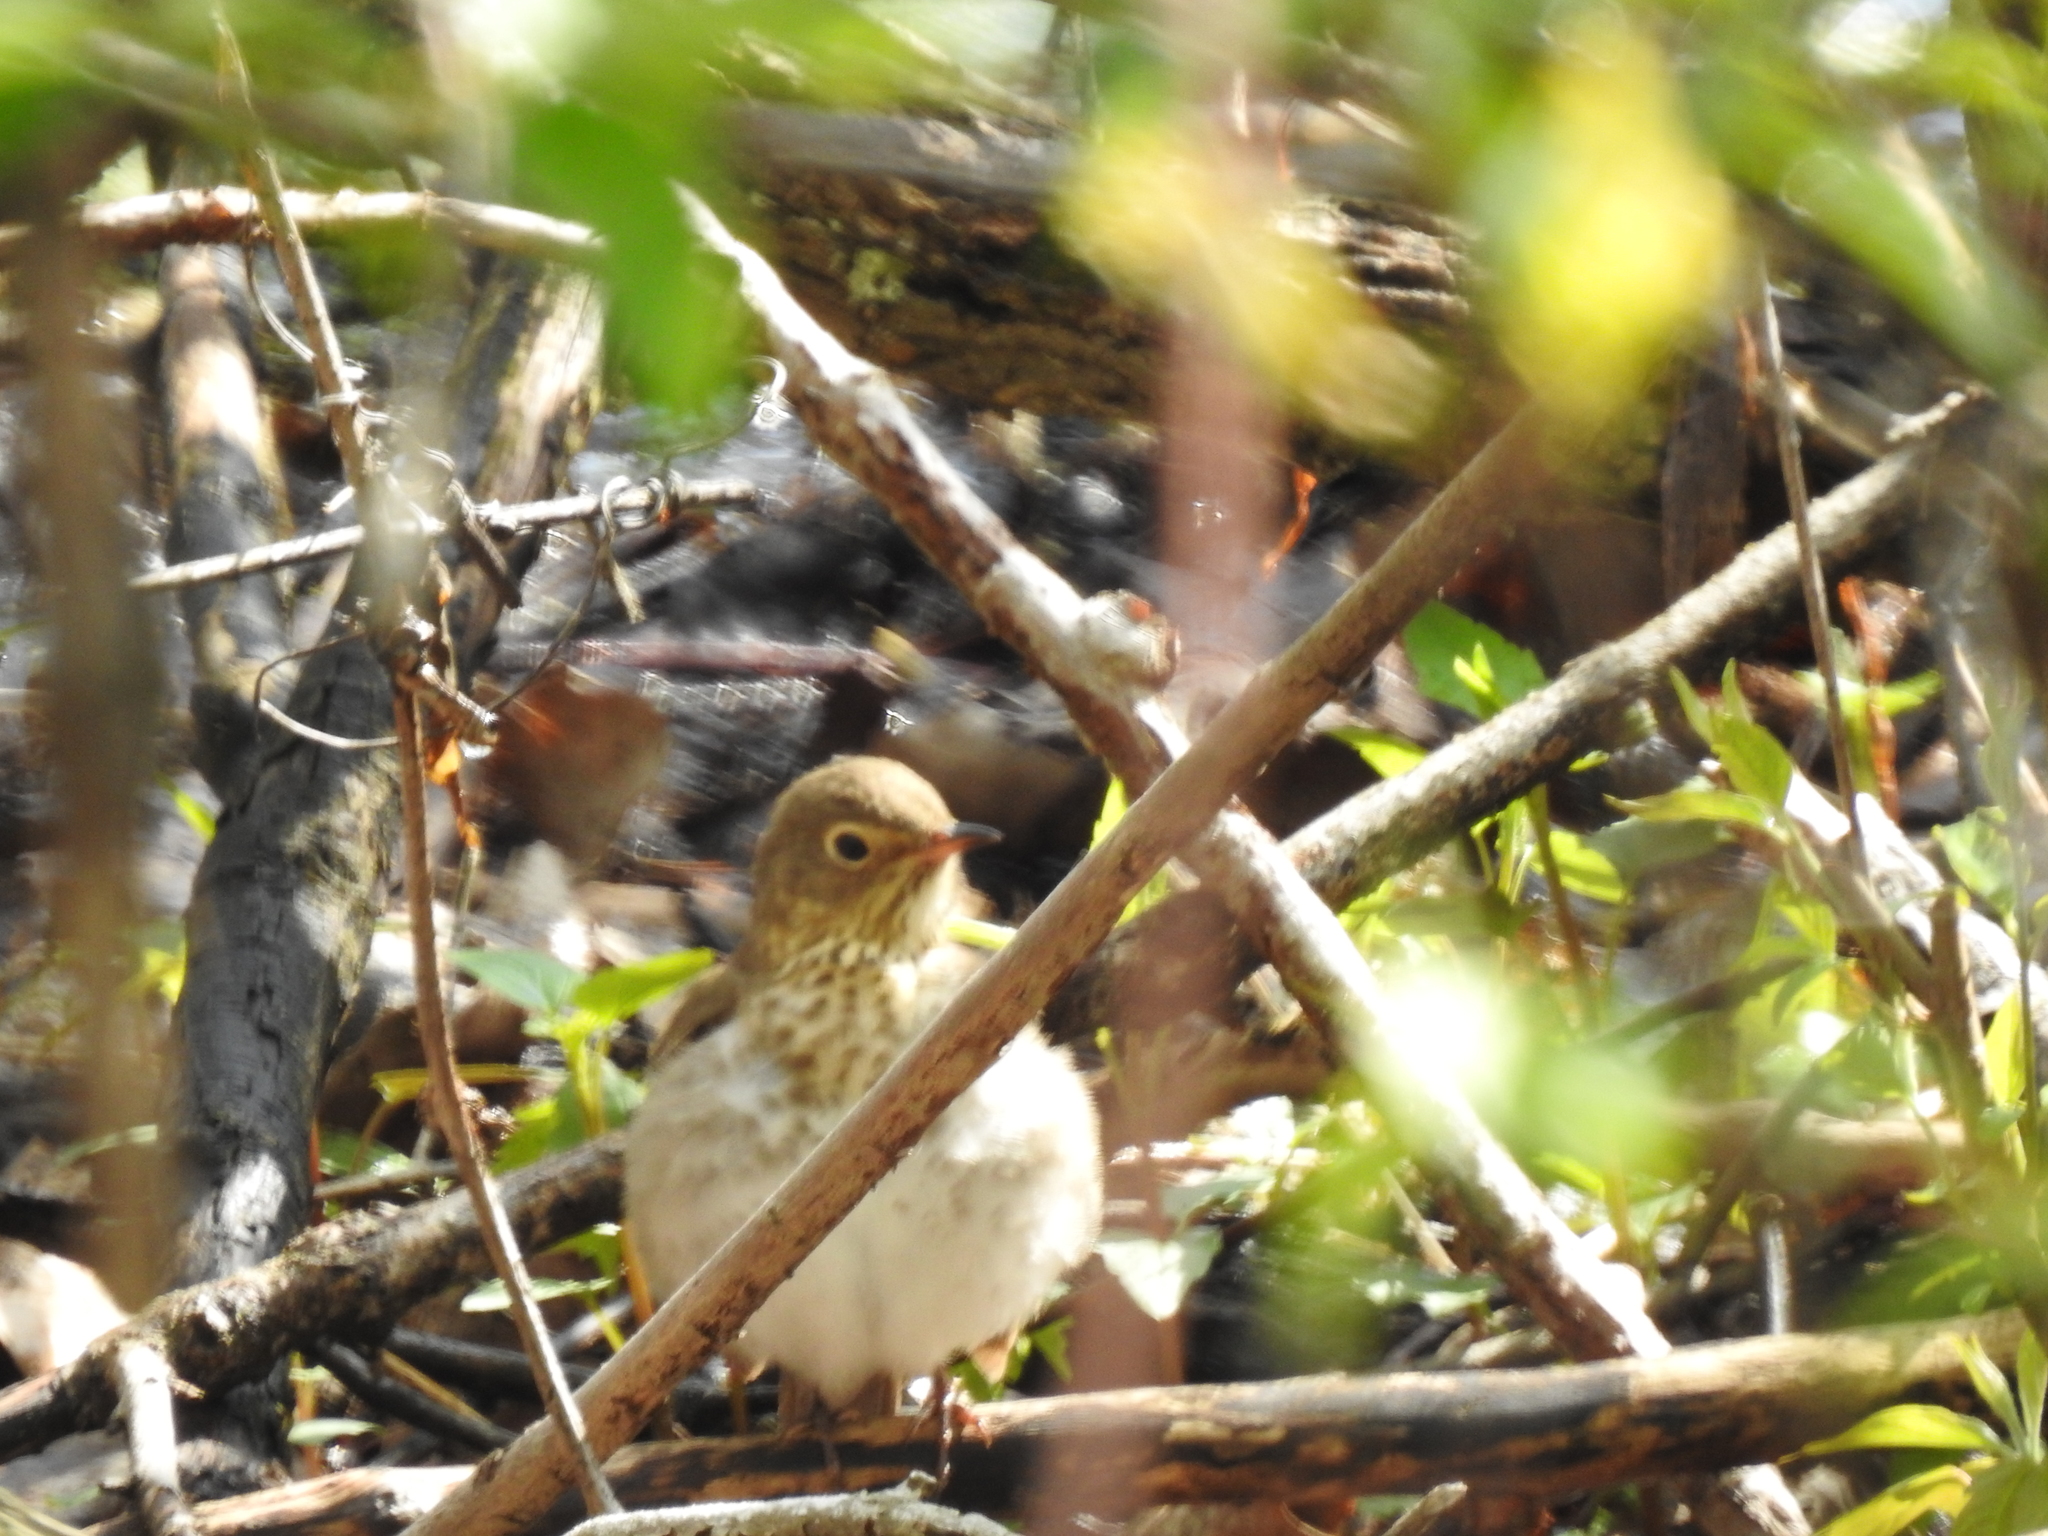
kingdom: Animalia
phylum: Chordata
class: Aves
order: Passeriformes
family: Turdidae
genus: Catharus
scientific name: Catharus ustulatus
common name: Swainson's thrush
